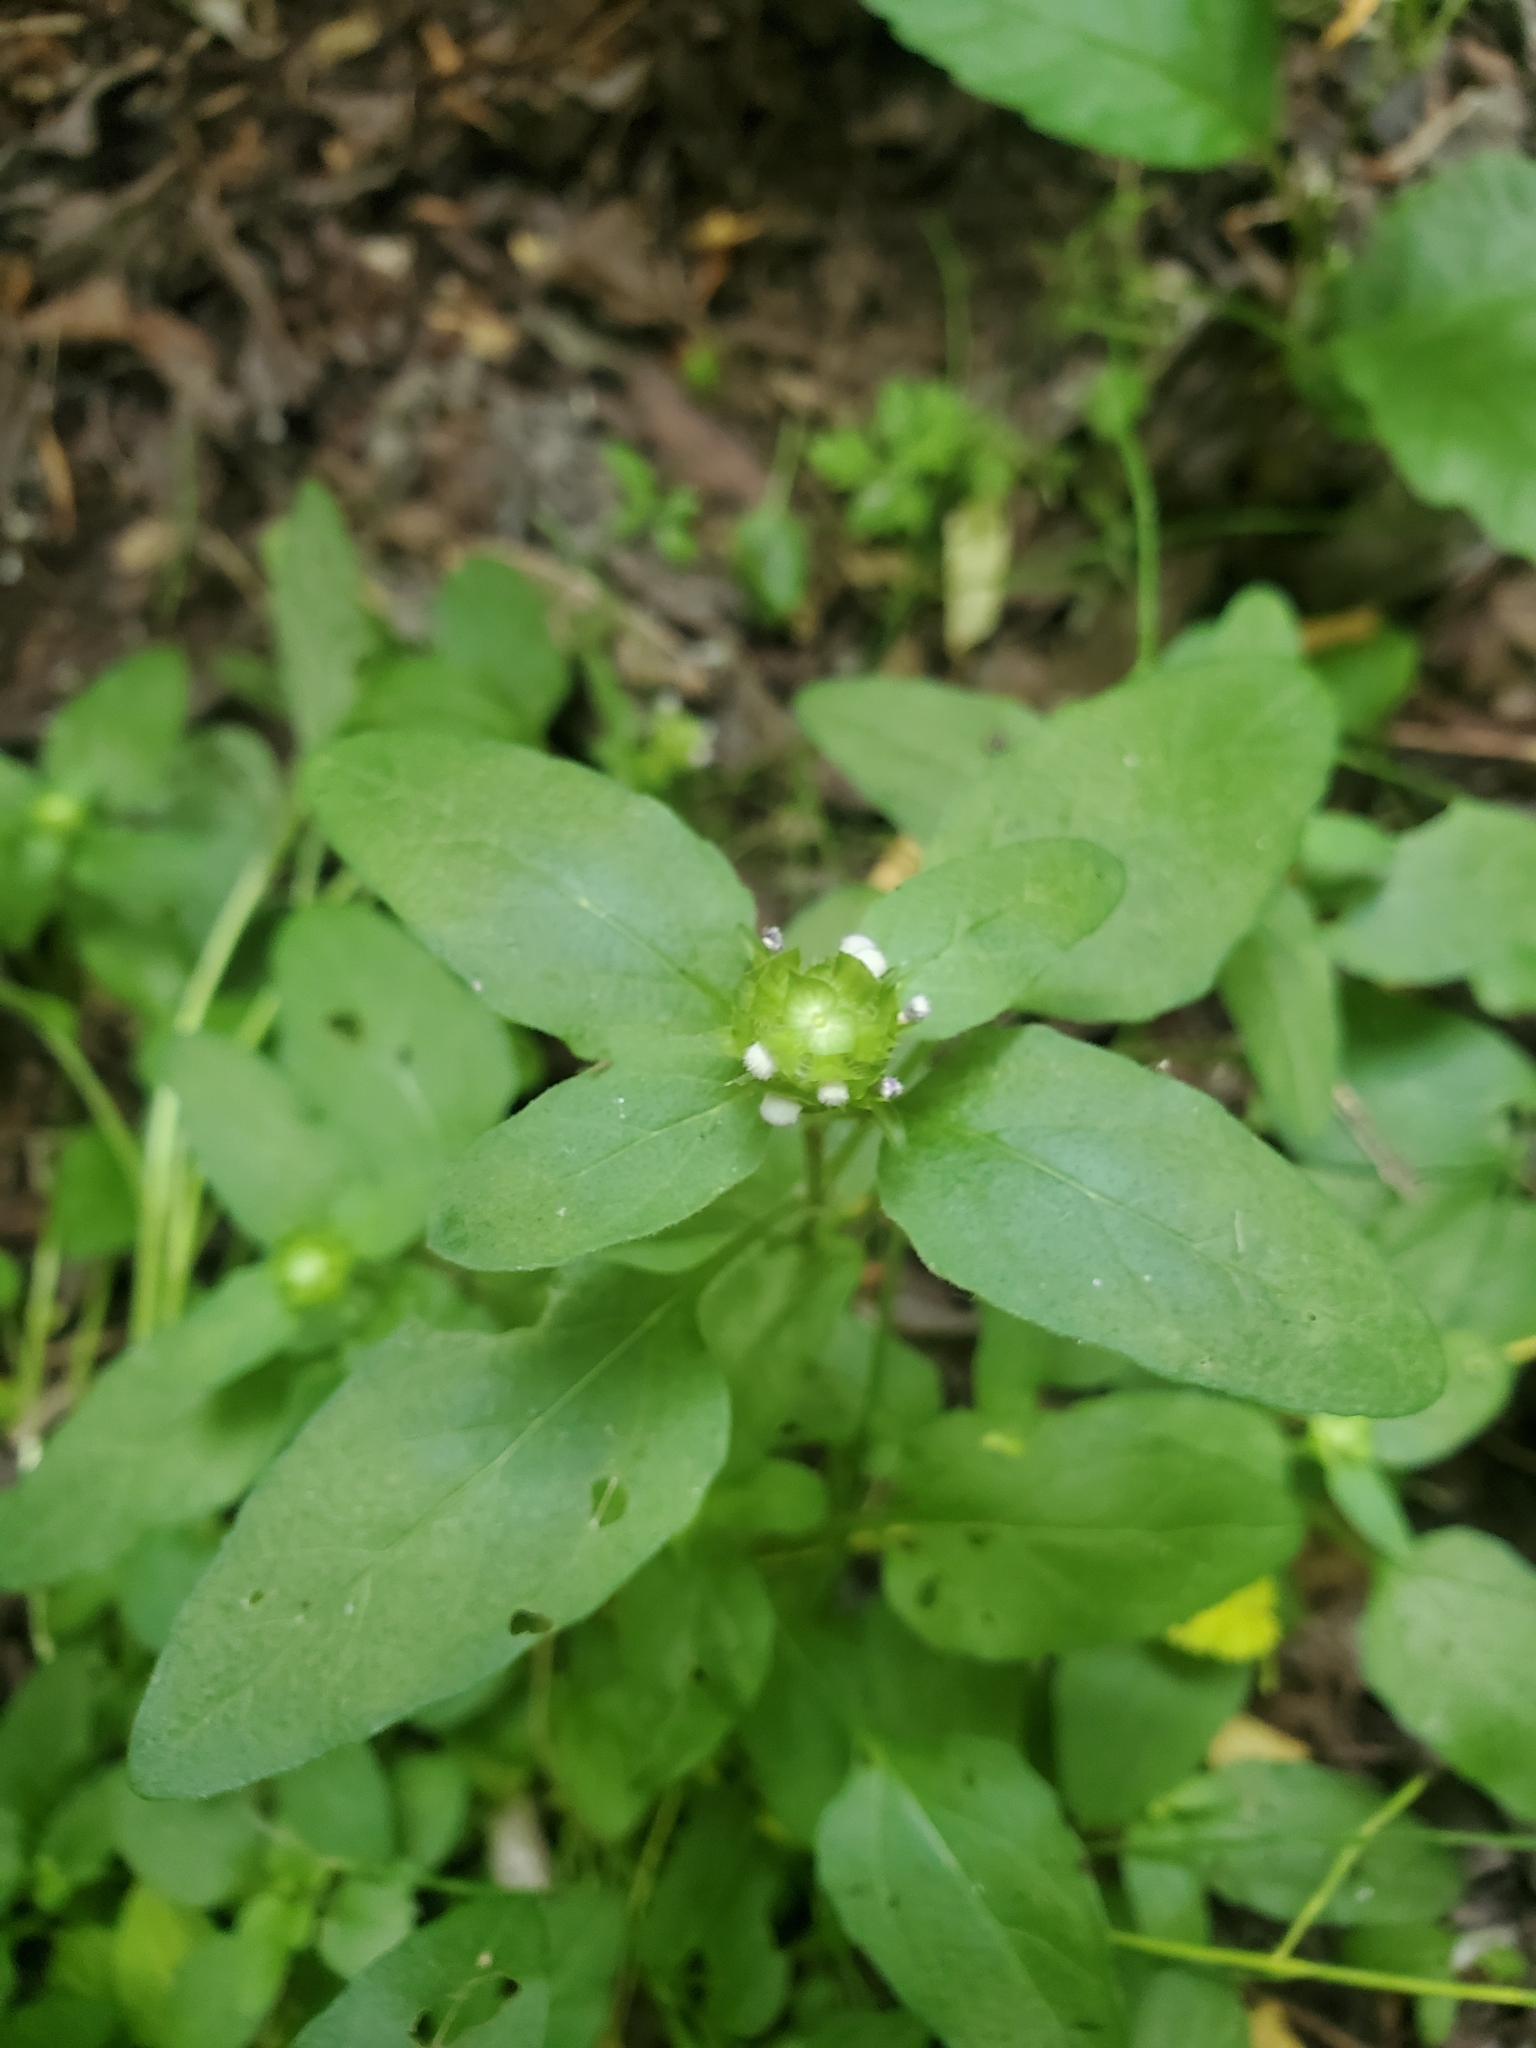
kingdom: Plantae
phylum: Tracheophyta
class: Magnoliopsida
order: Lamiales
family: Lamiaceae
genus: Prunella
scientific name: Prunella vulgaris
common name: Heal-all
